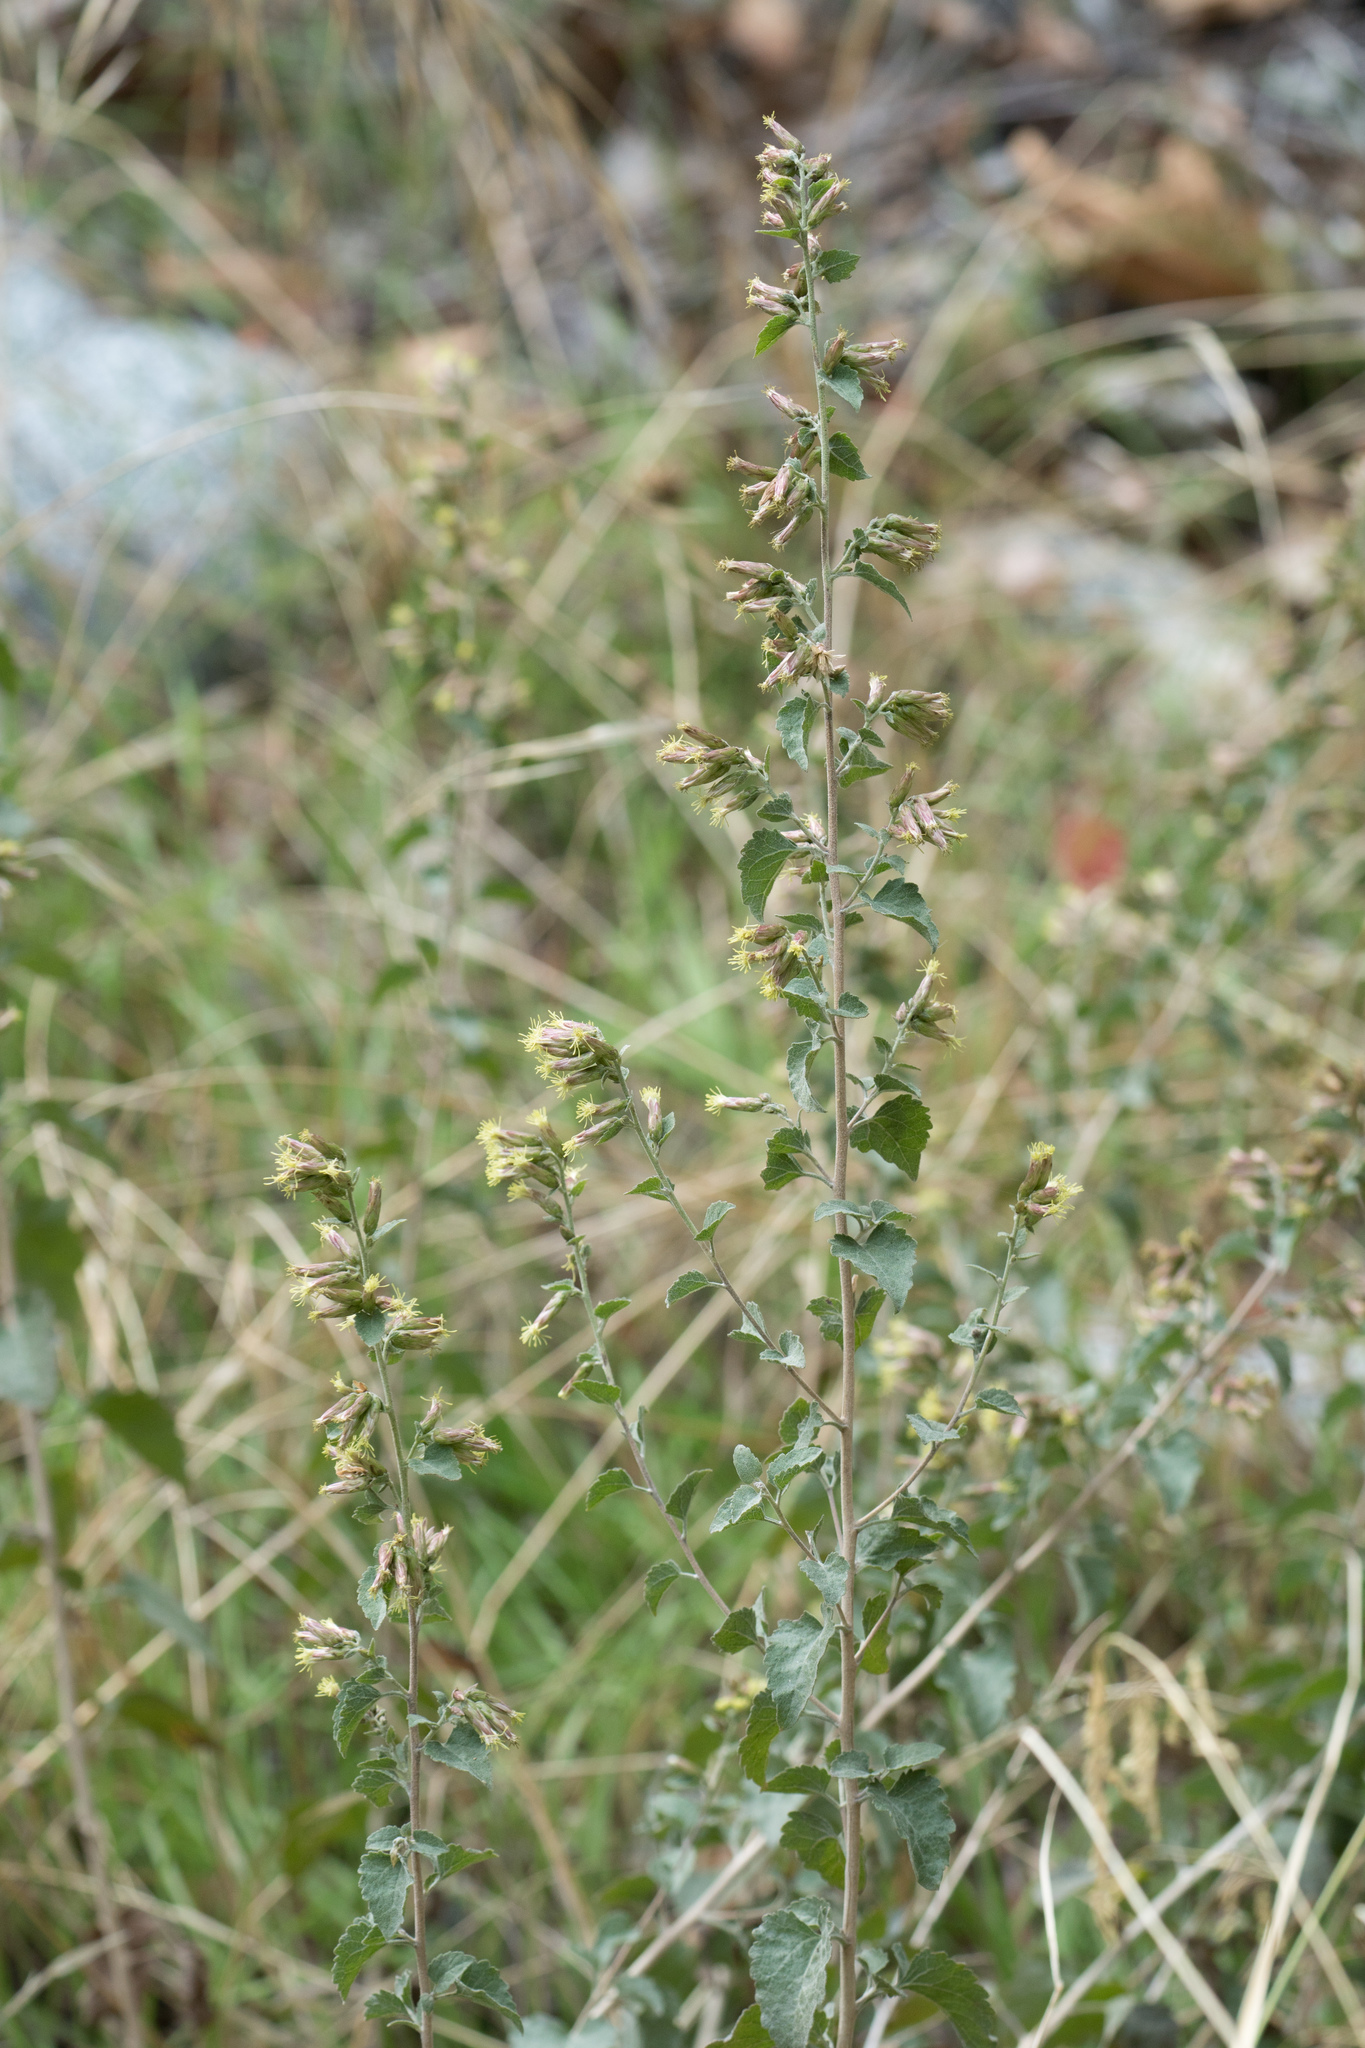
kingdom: Plantae
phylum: Tracheophyta
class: Magnoliopsida
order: Asterales
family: Asteraceae
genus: Brickellia
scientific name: Brickellia californica
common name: California brickellbush
